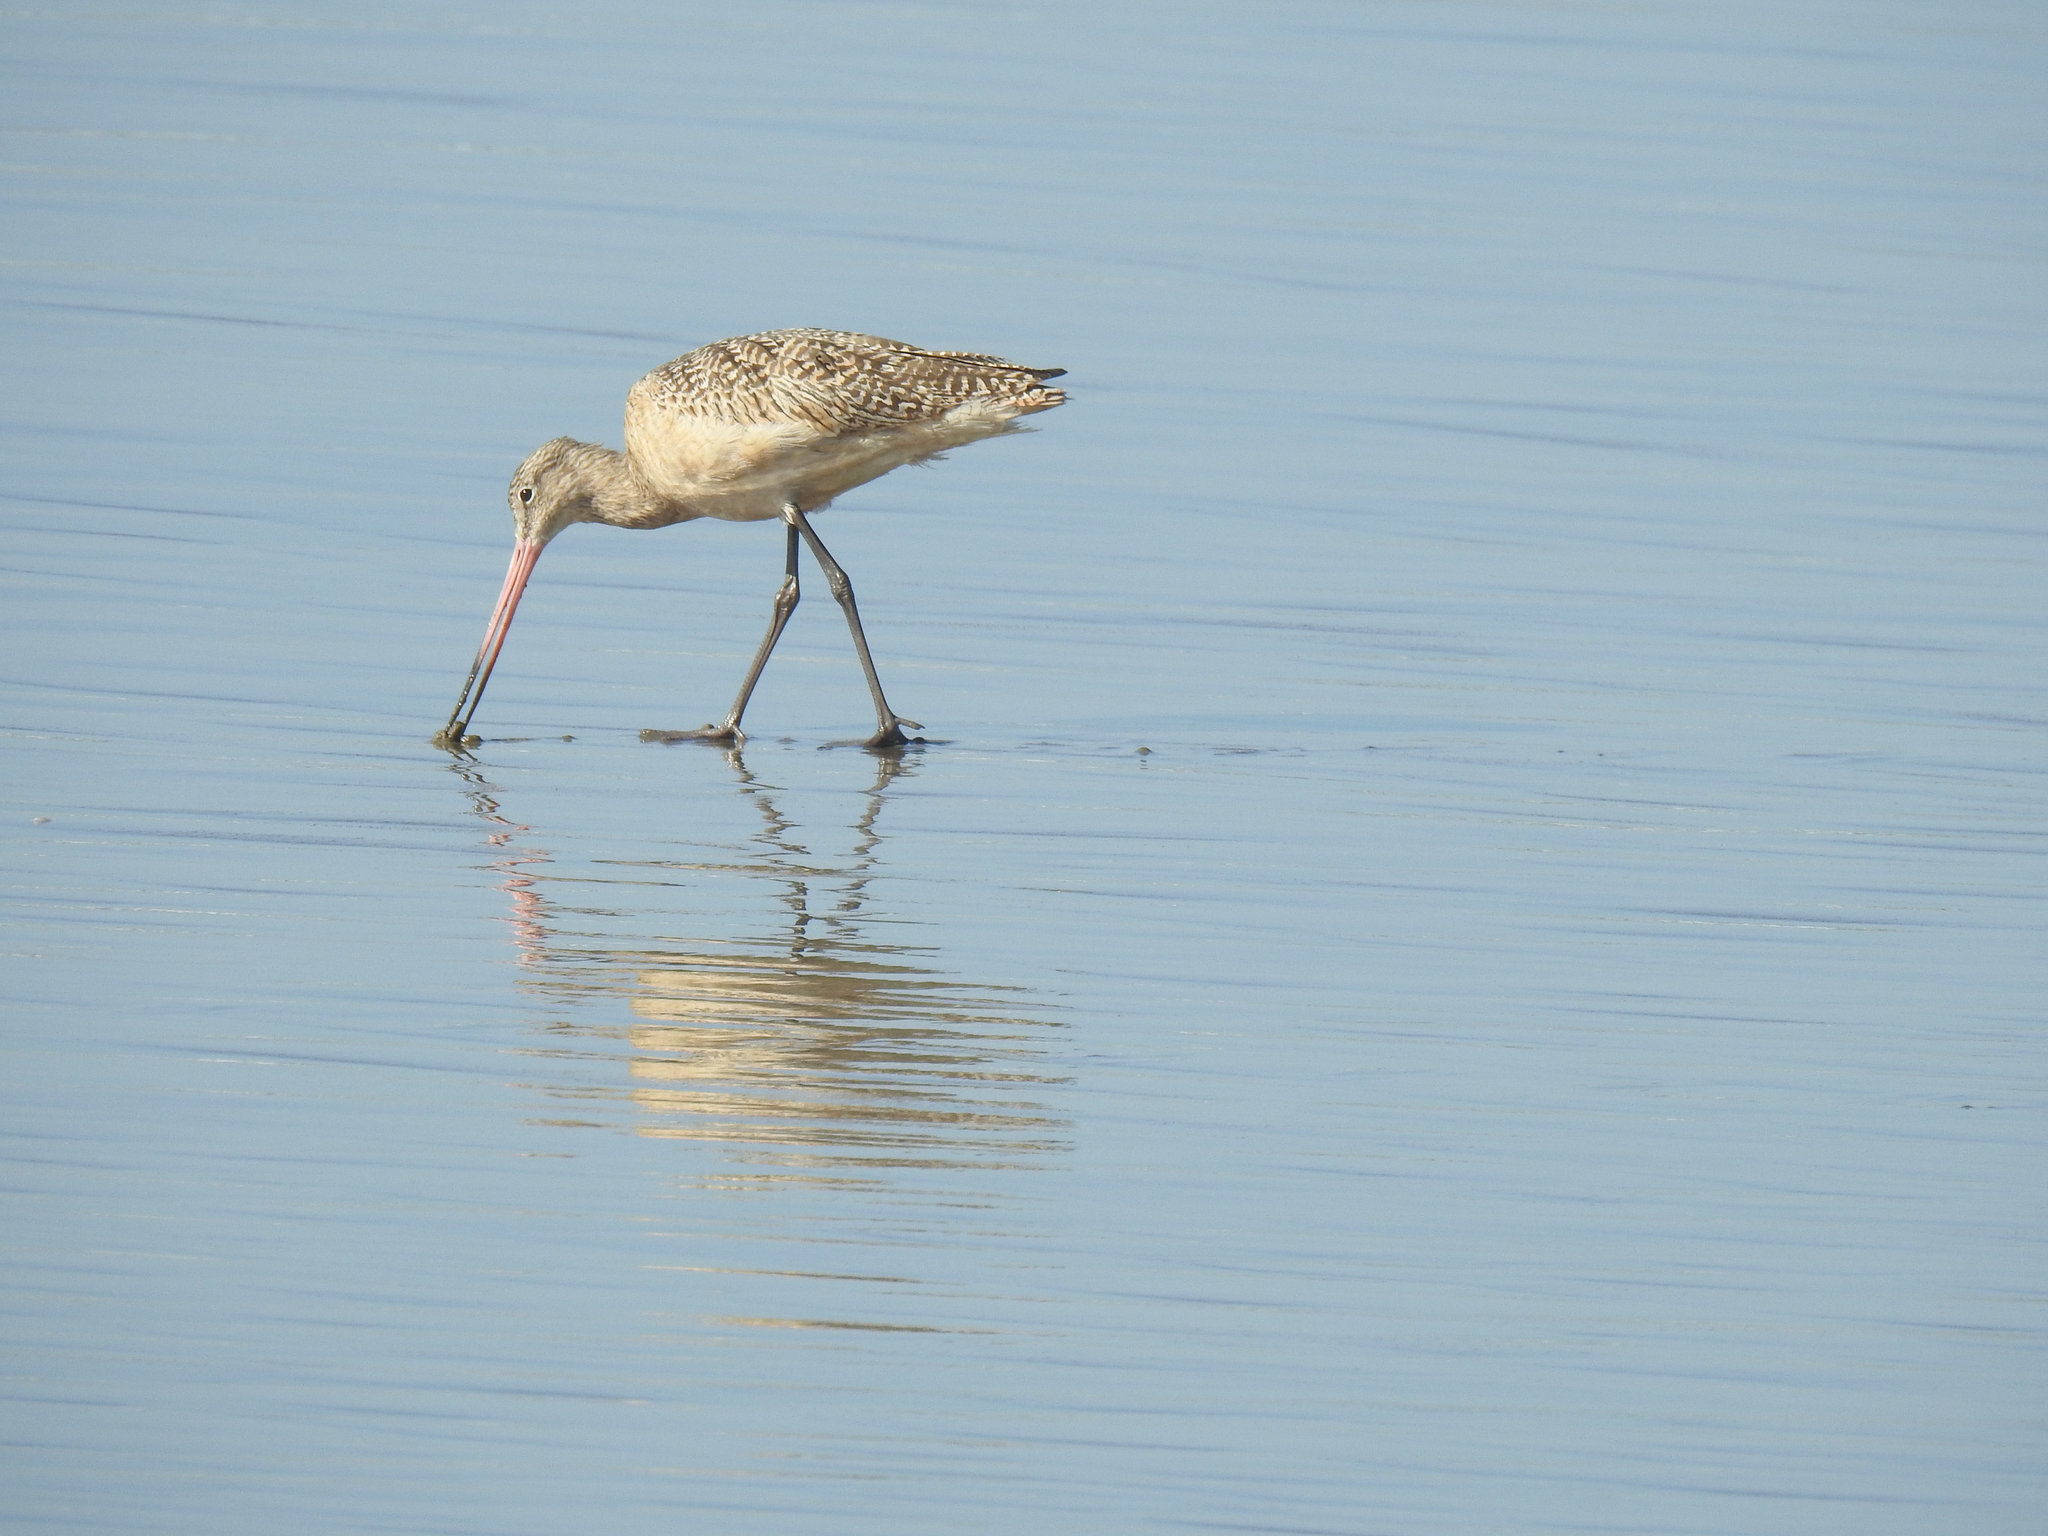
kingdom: Animalia
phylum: Chordata
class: Aves
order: Charadriiformes
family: Scolopacidae
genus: Limosa
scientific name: Limosa fedoa
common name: Marbled godwit
